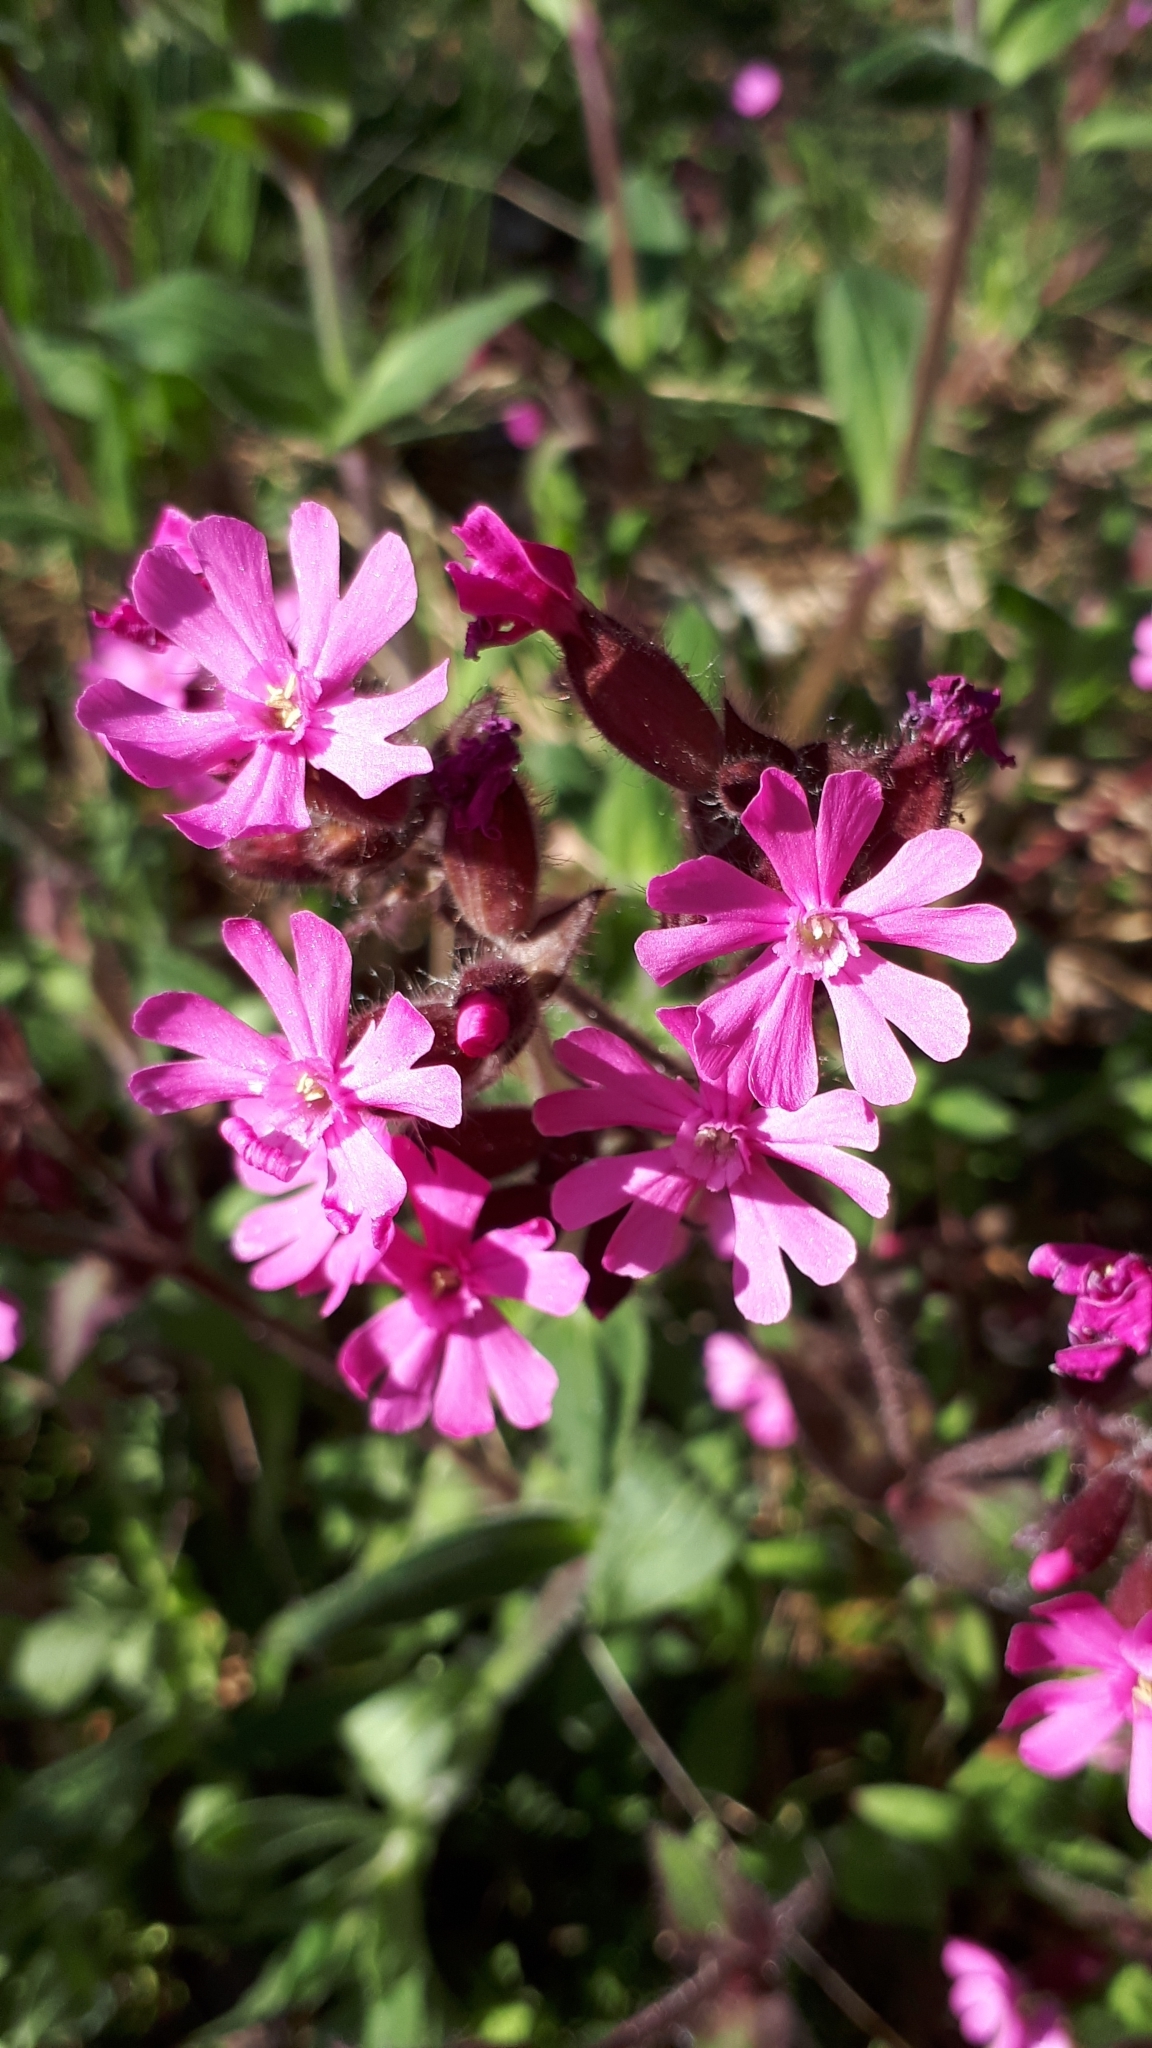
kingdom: Plantae
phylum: Tracheophyta
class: Magnoliopsida
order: Caryophyllales
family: Caryophyllaceae
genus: Silene
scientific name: Silene dioica
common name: Red campion
